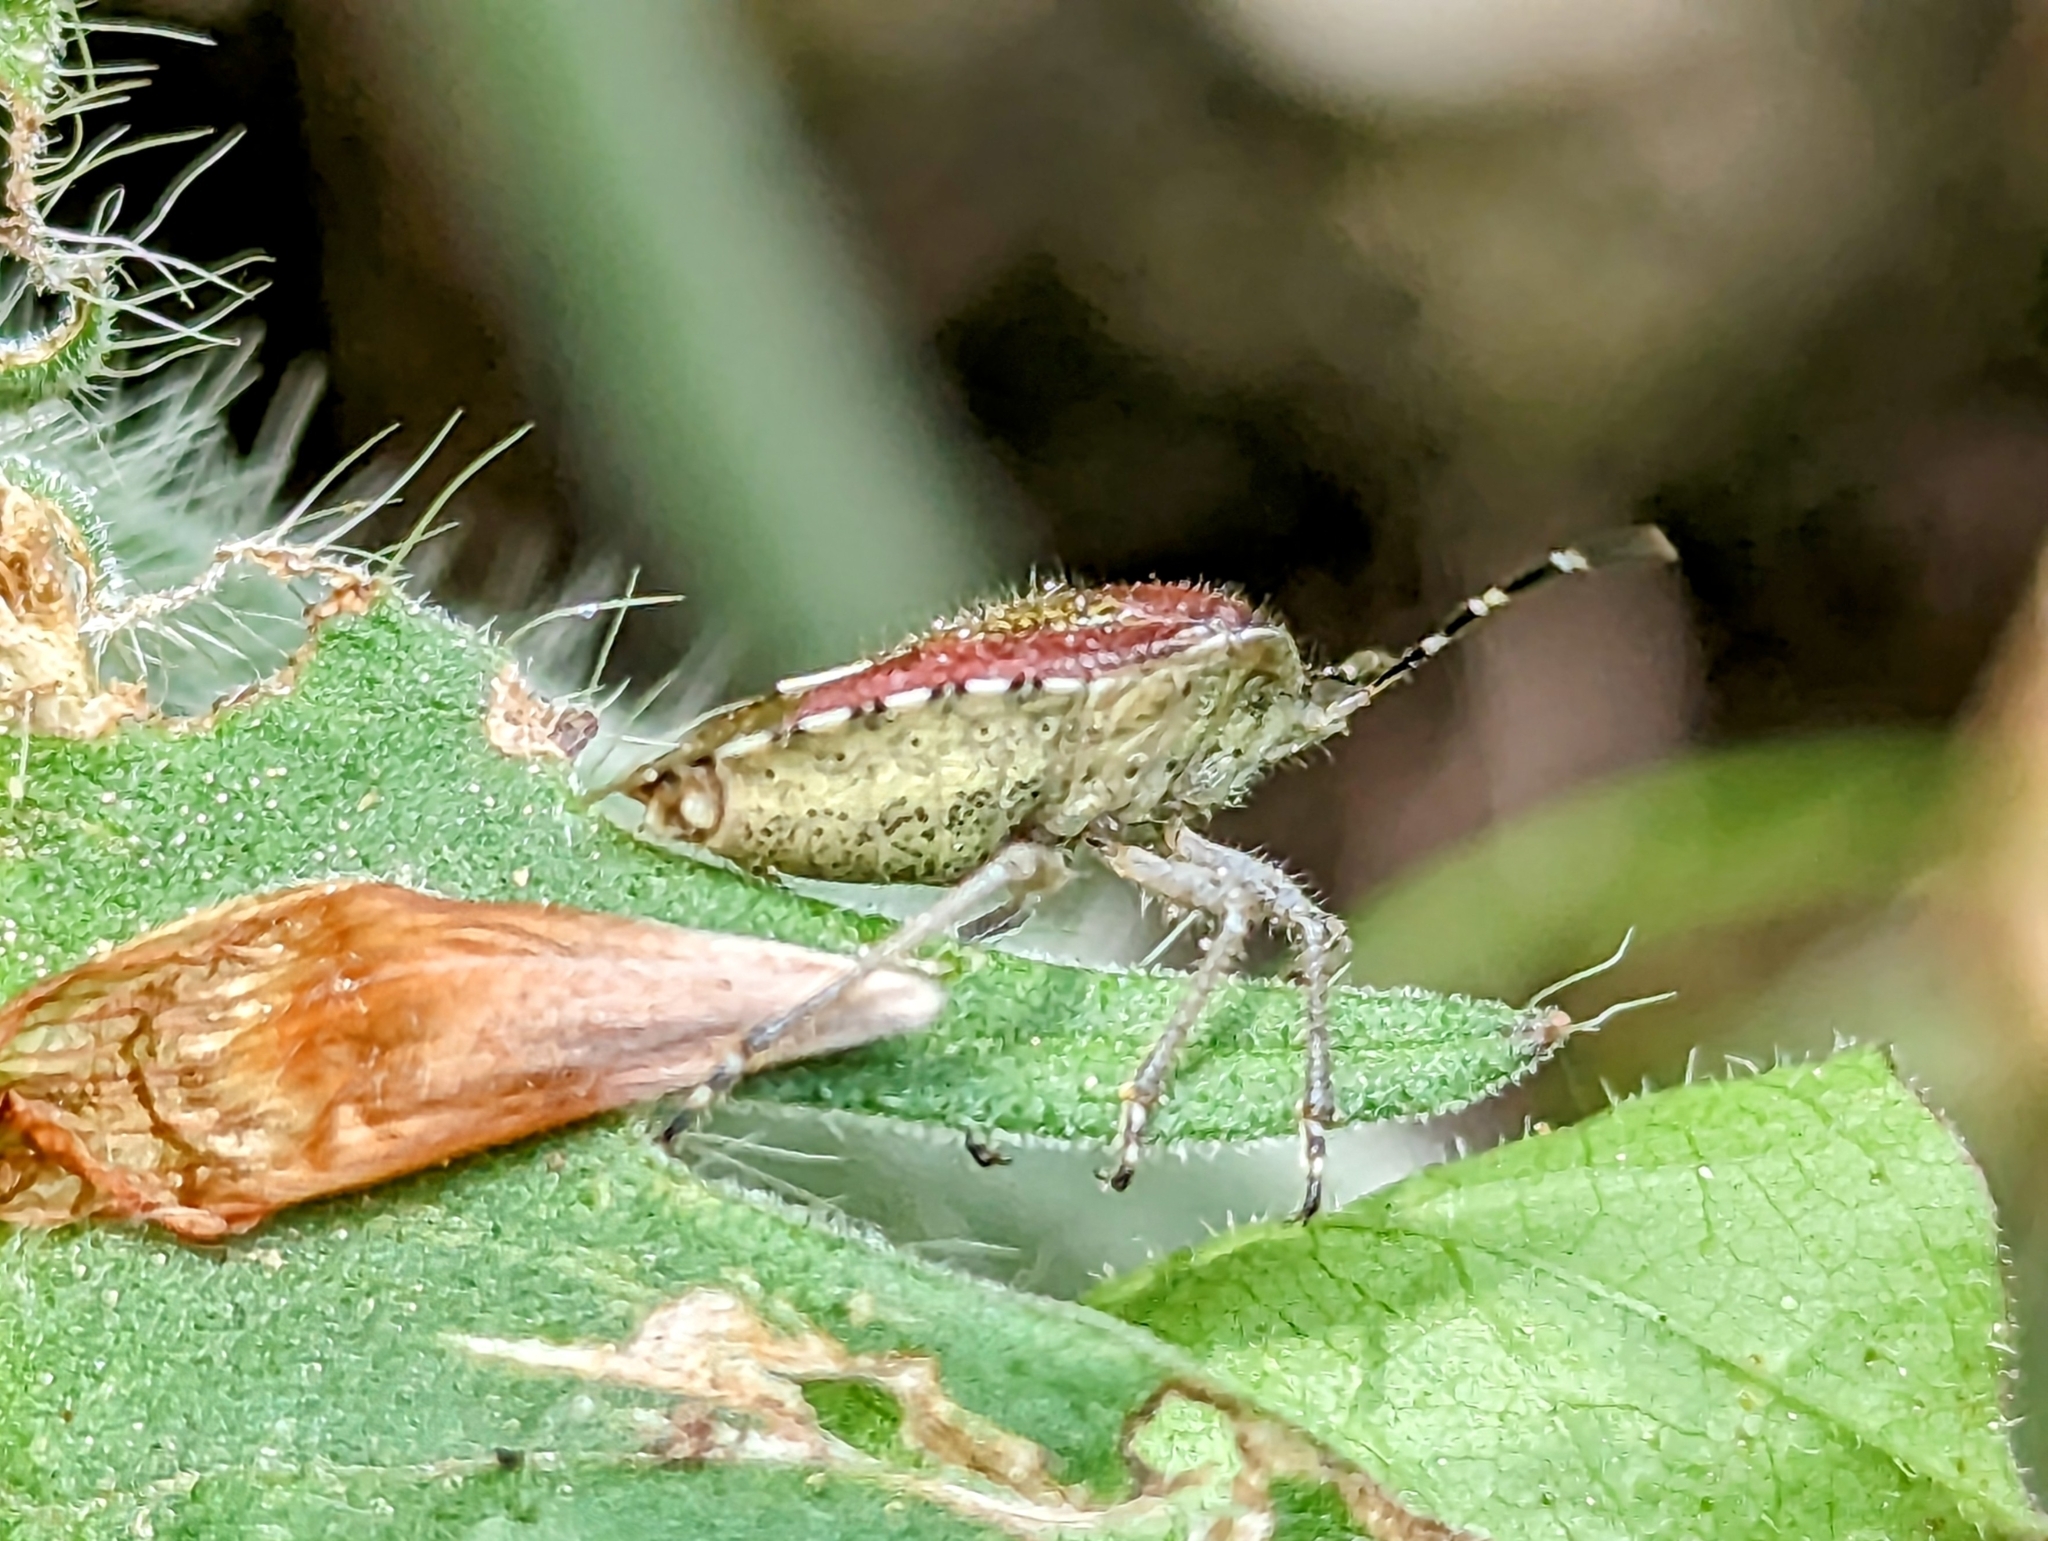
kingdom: Animalia
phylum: Arthropoda
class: Insecta
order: Hemiptera
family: Pentatomidae
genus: Dolycoris
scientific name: Dolycoris baccarum
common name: Sloe bug
